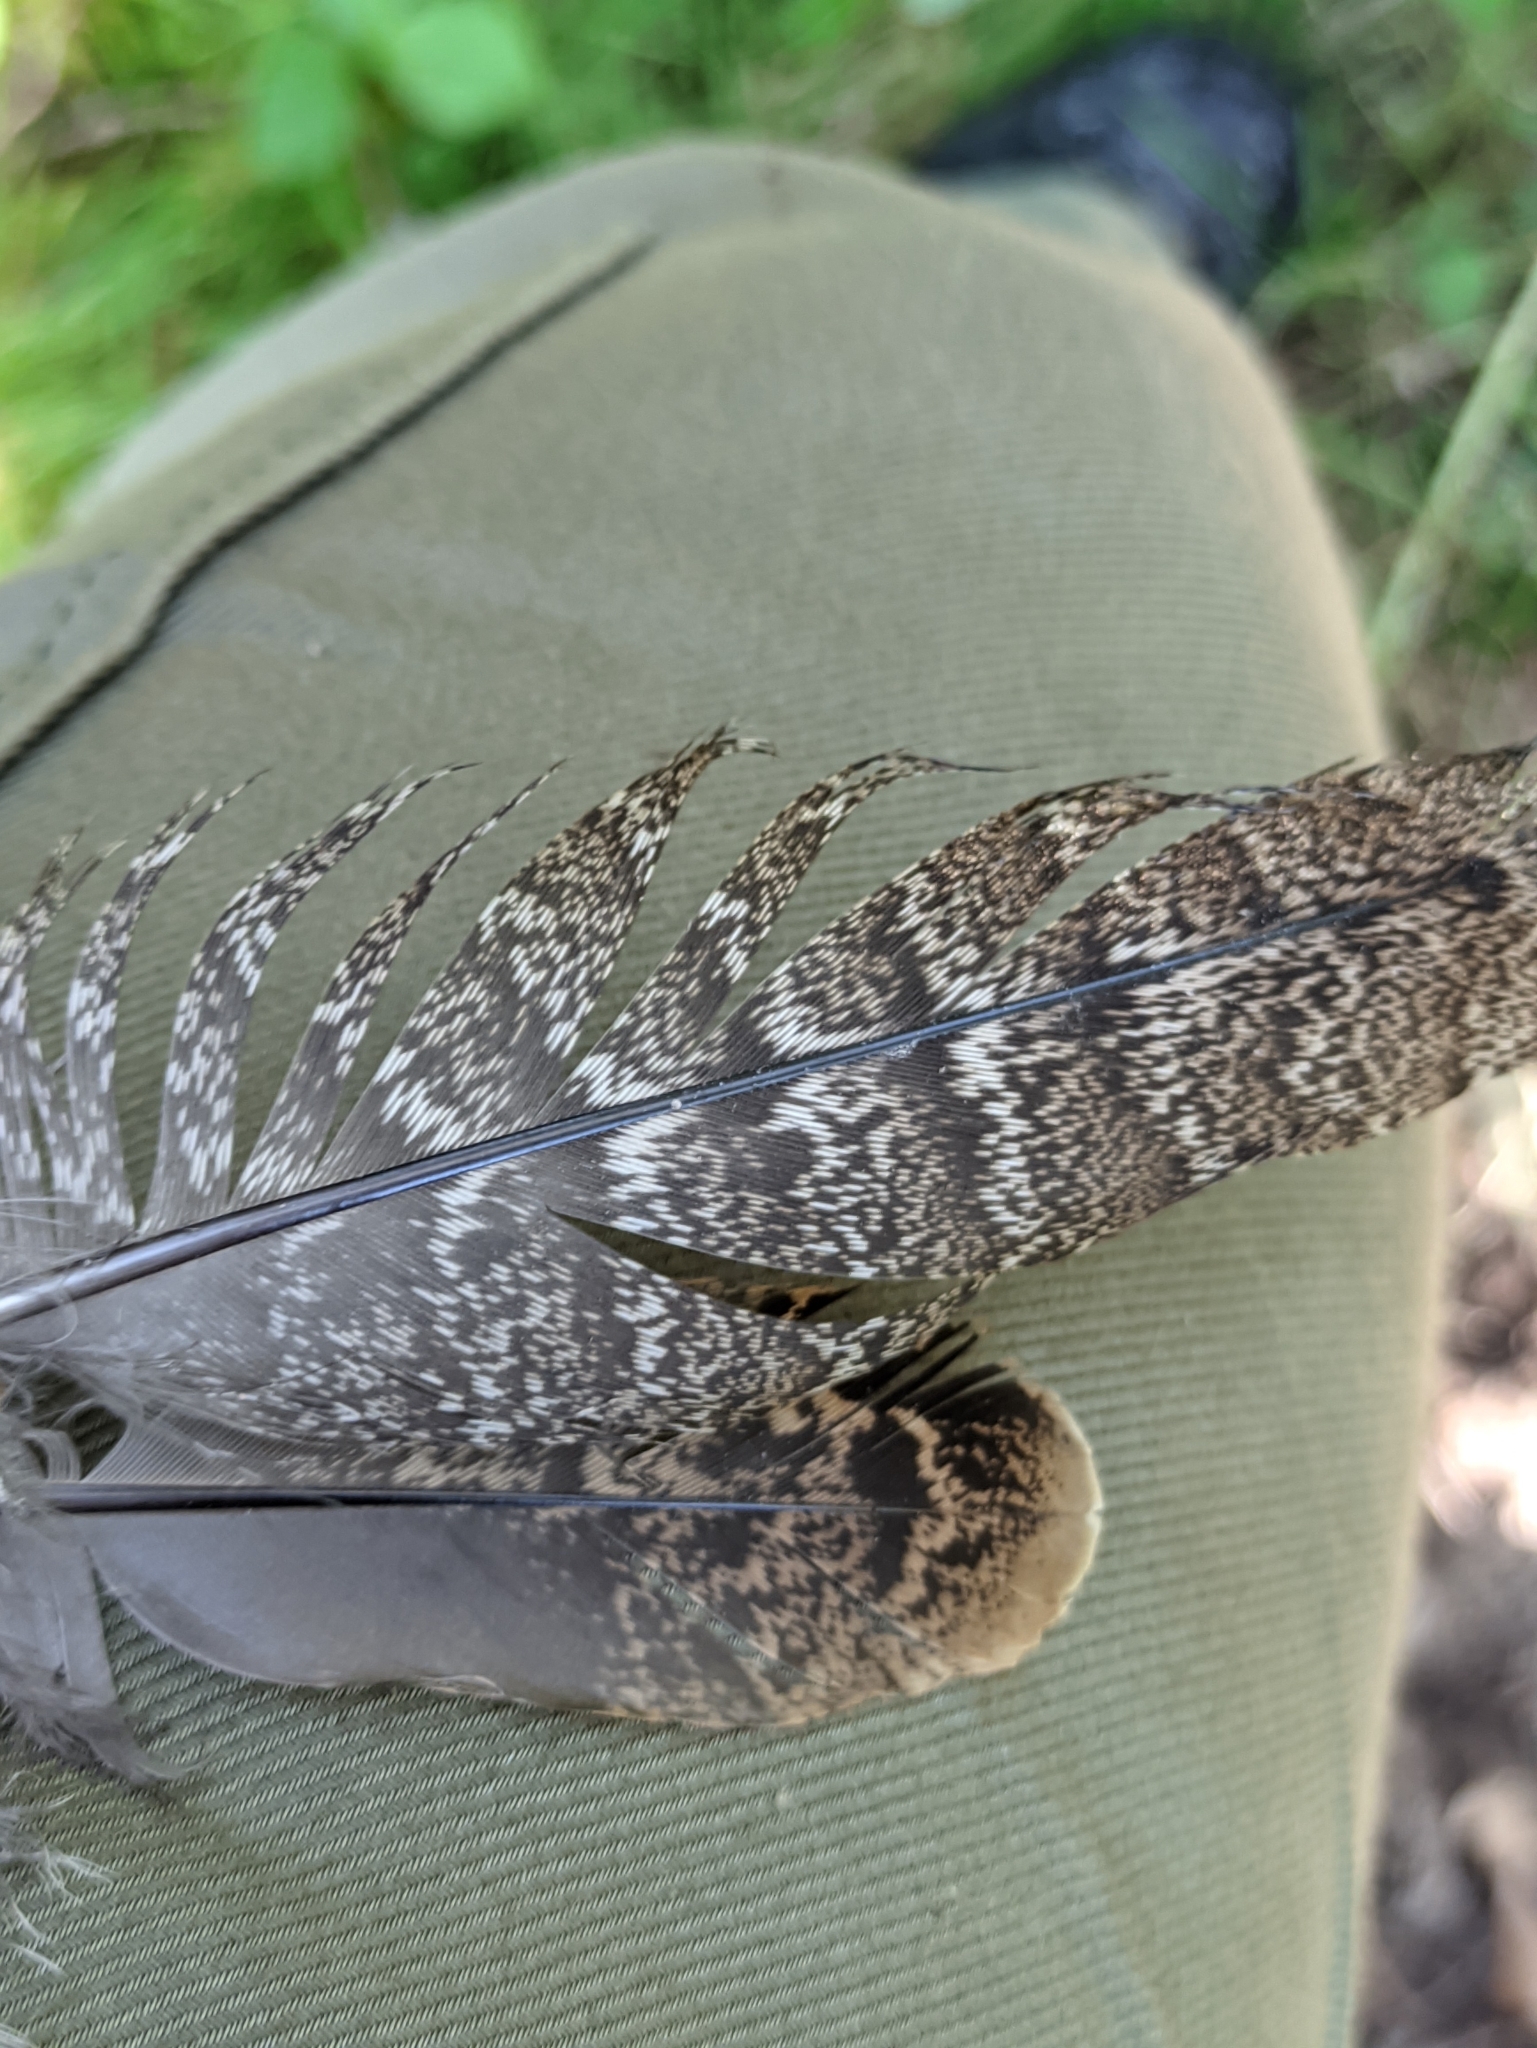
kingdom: Animalia
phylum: Chordata
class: Aves
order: Galliformes
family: Phasianidae
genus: Tetrastes
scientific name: Tetrastes bonasia
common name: Hazel grouse
